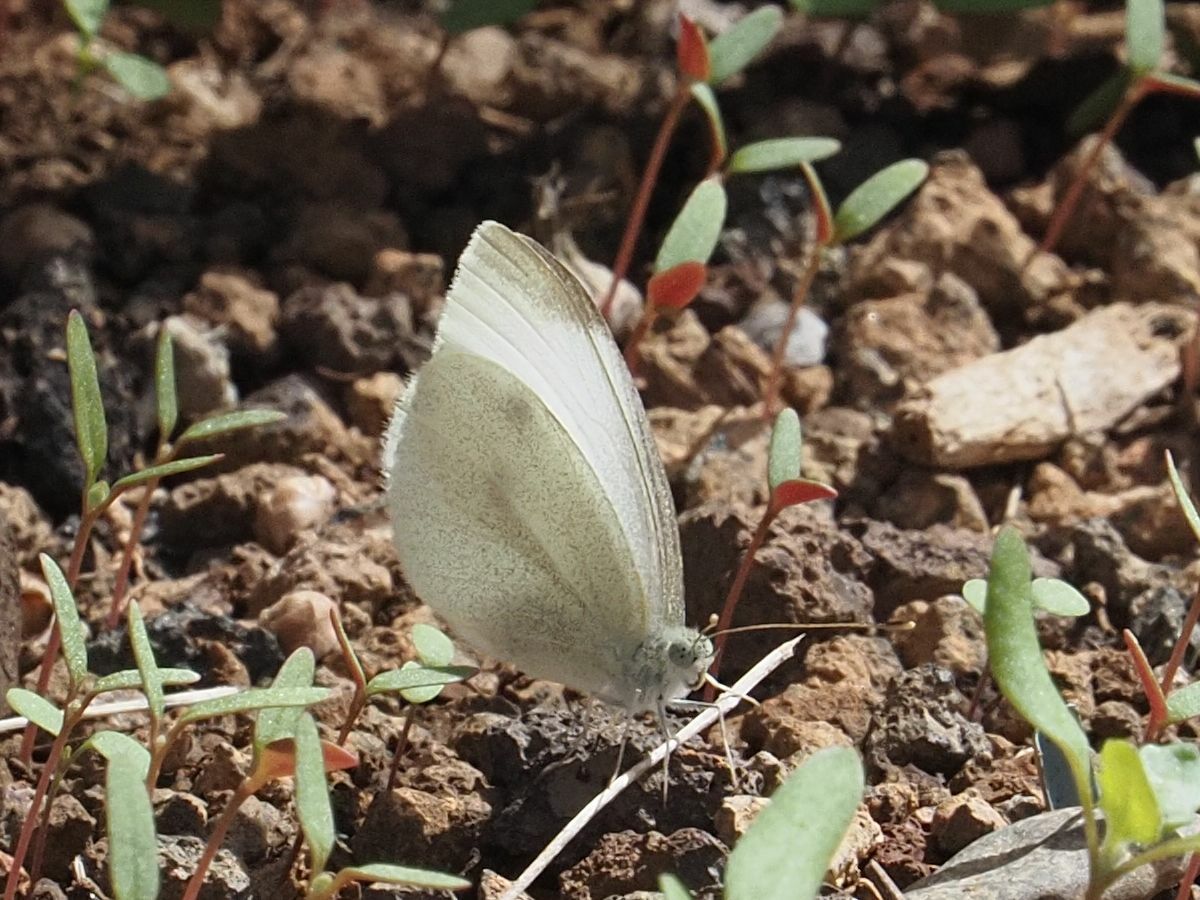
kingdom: Animalia
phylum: Arthropoda
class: Insecta
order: Lepidoptera
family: Pieridae
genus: Pieris
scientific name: Pieris rapae
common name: Small white
